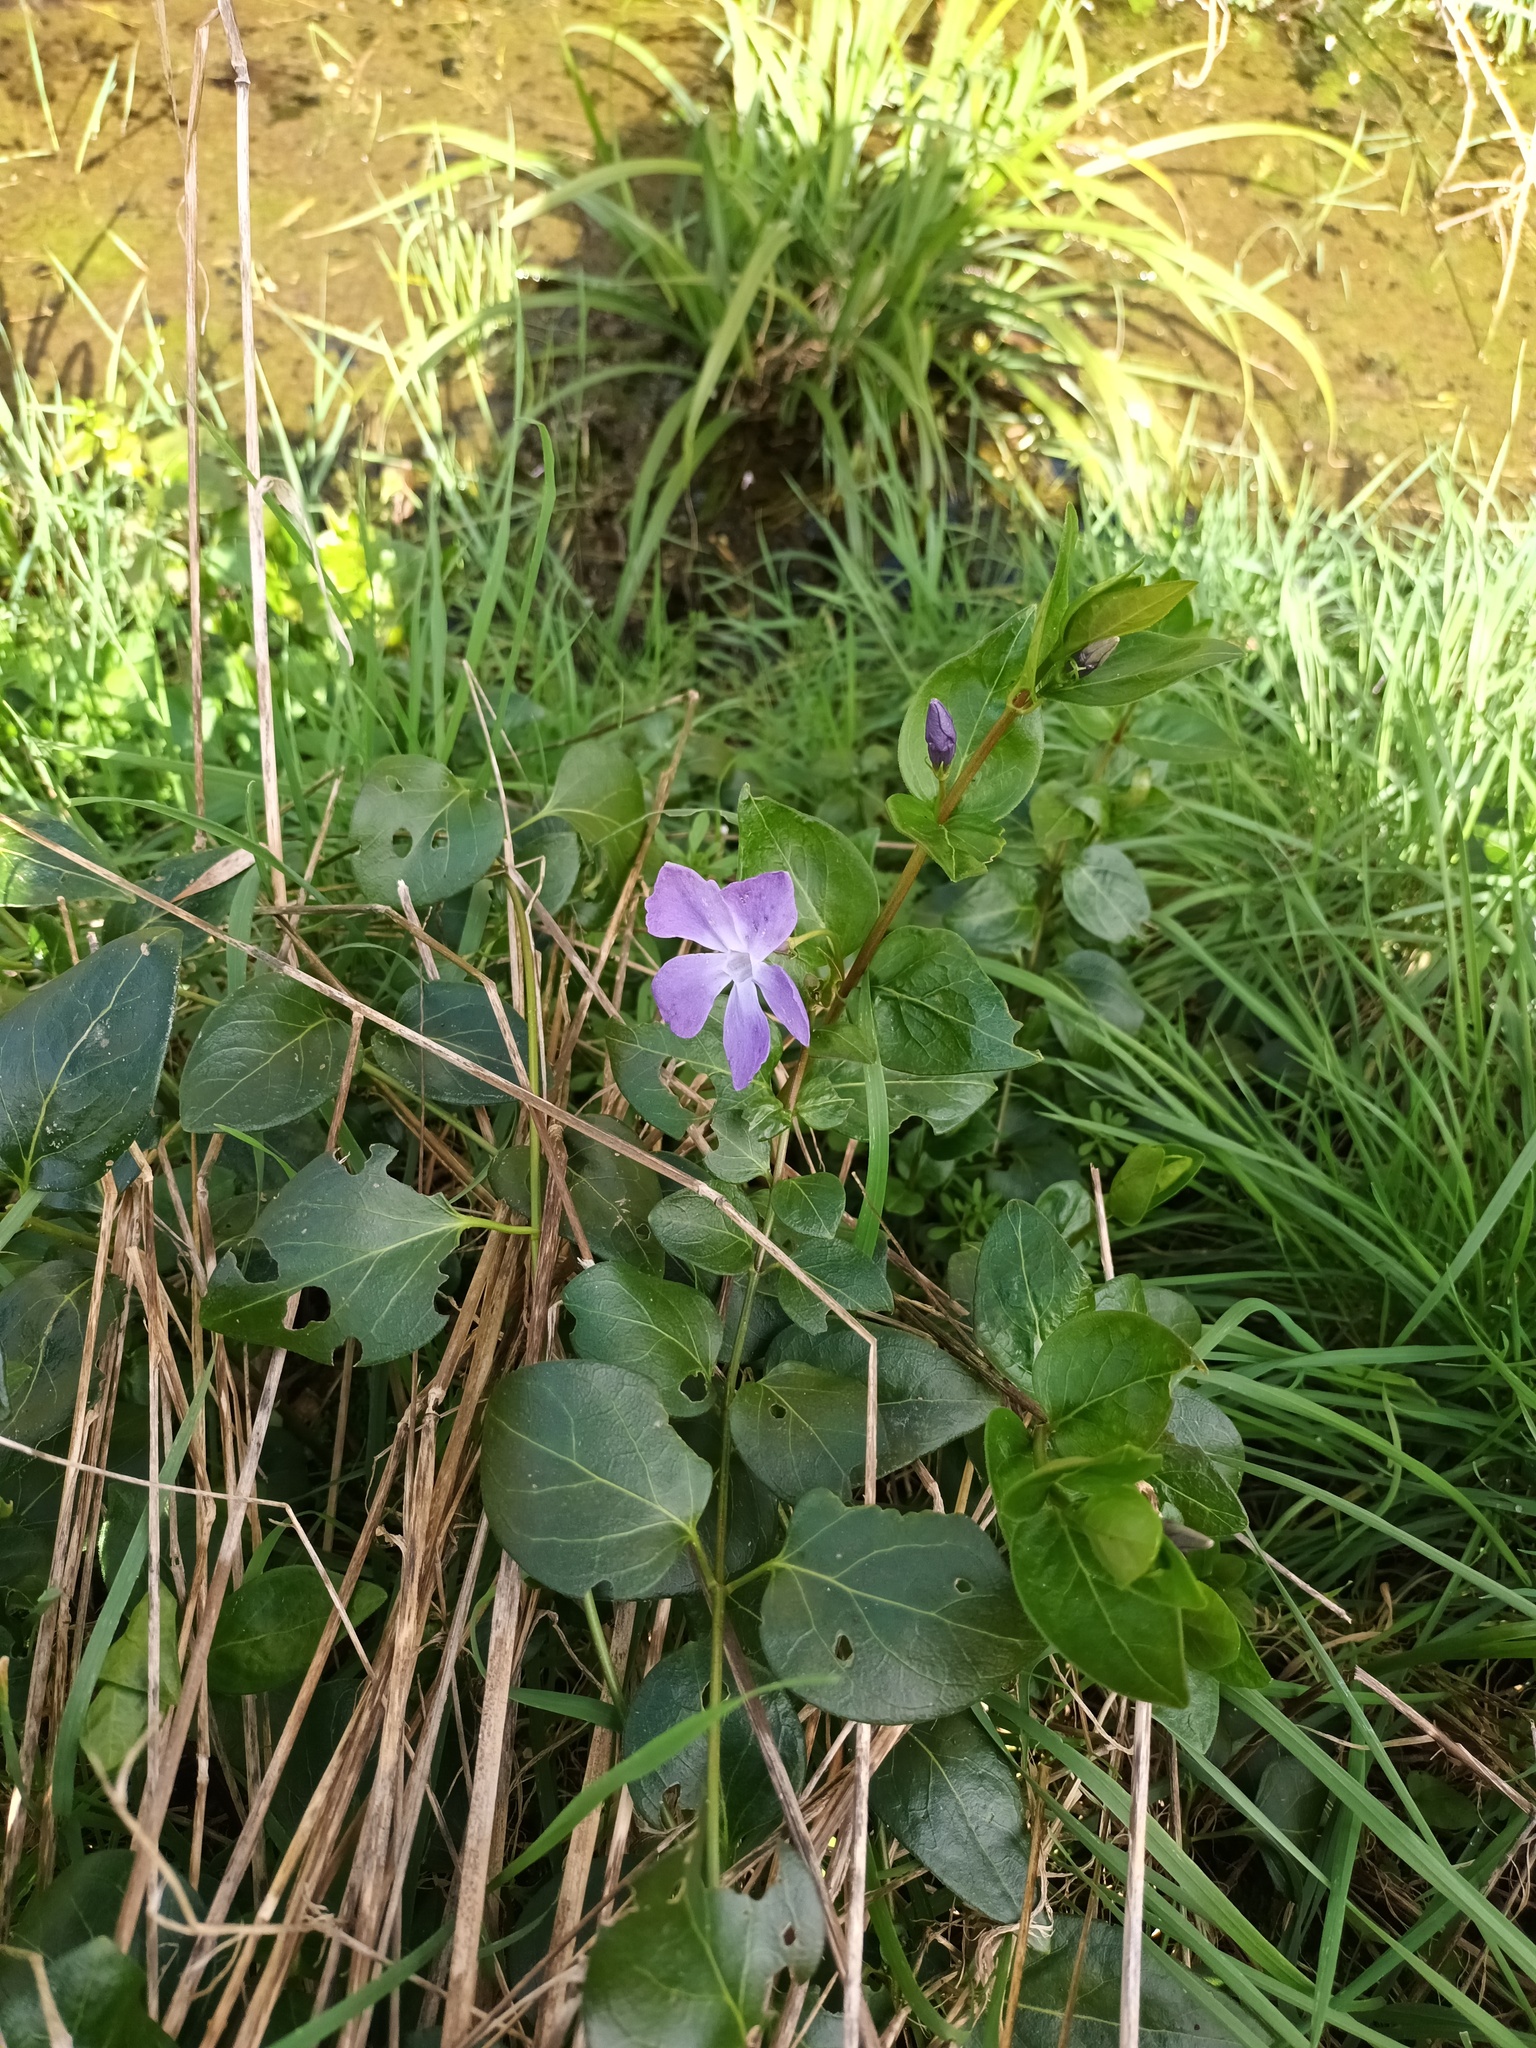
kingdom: Plantae
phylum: Tracheophyta
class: Magnoliopsida
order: Gentianales
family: Apocynaceae
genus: Vinca
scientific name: Vinca major
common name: Greater periwinkle
